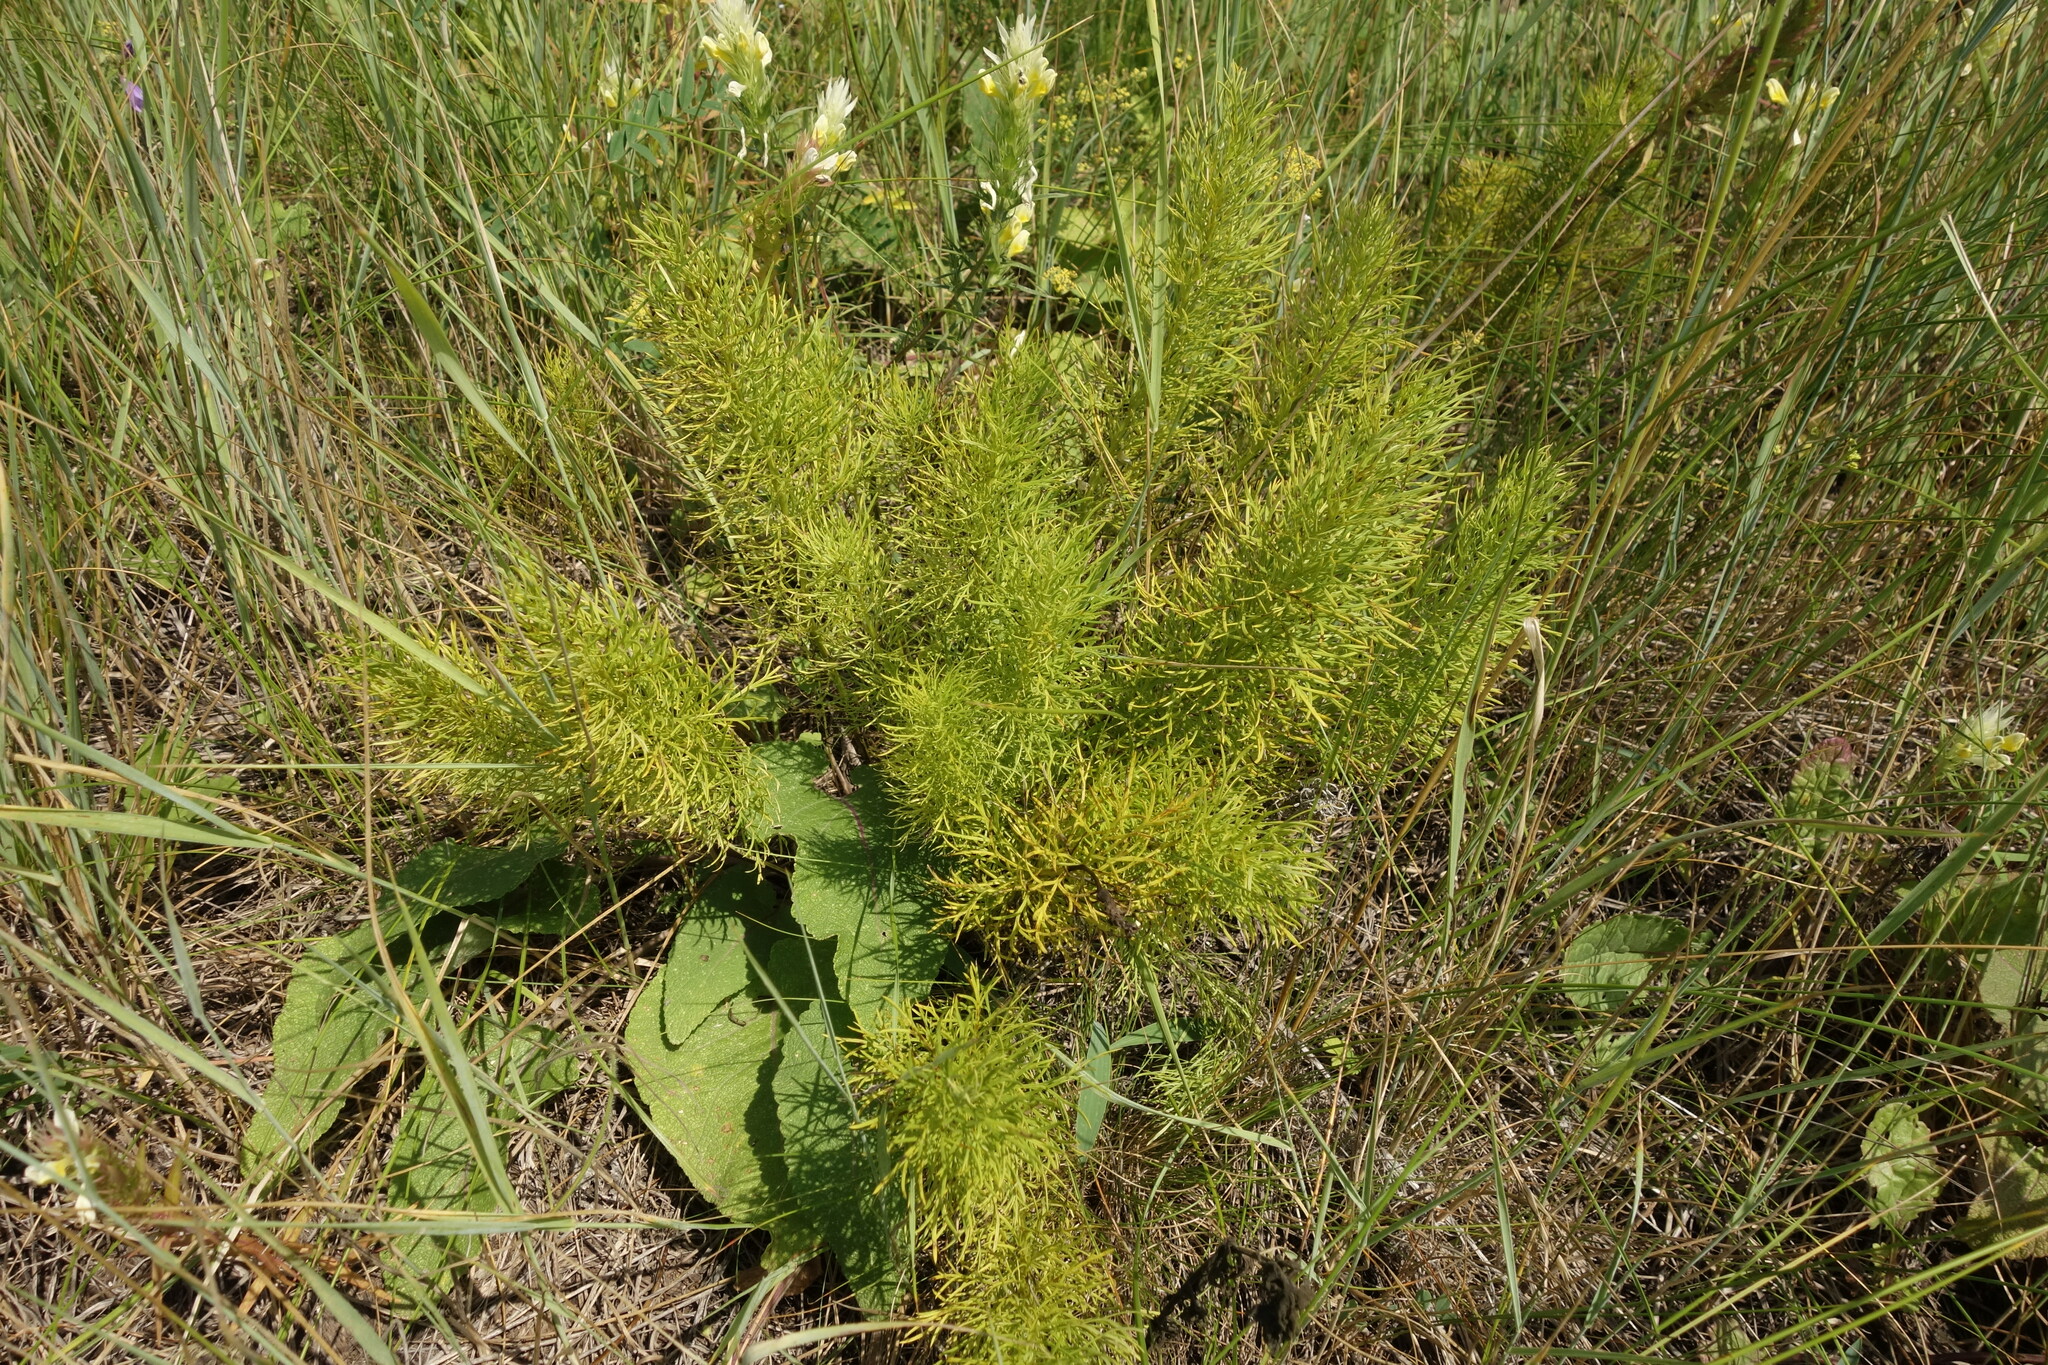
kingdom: Plantae
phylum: Tracheophyta
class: Magnoliopsida
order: Ranunculales
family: Ranunculaceae
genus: Adonis
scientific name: Adonis vernalis
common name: Yellow pheasants-eye
